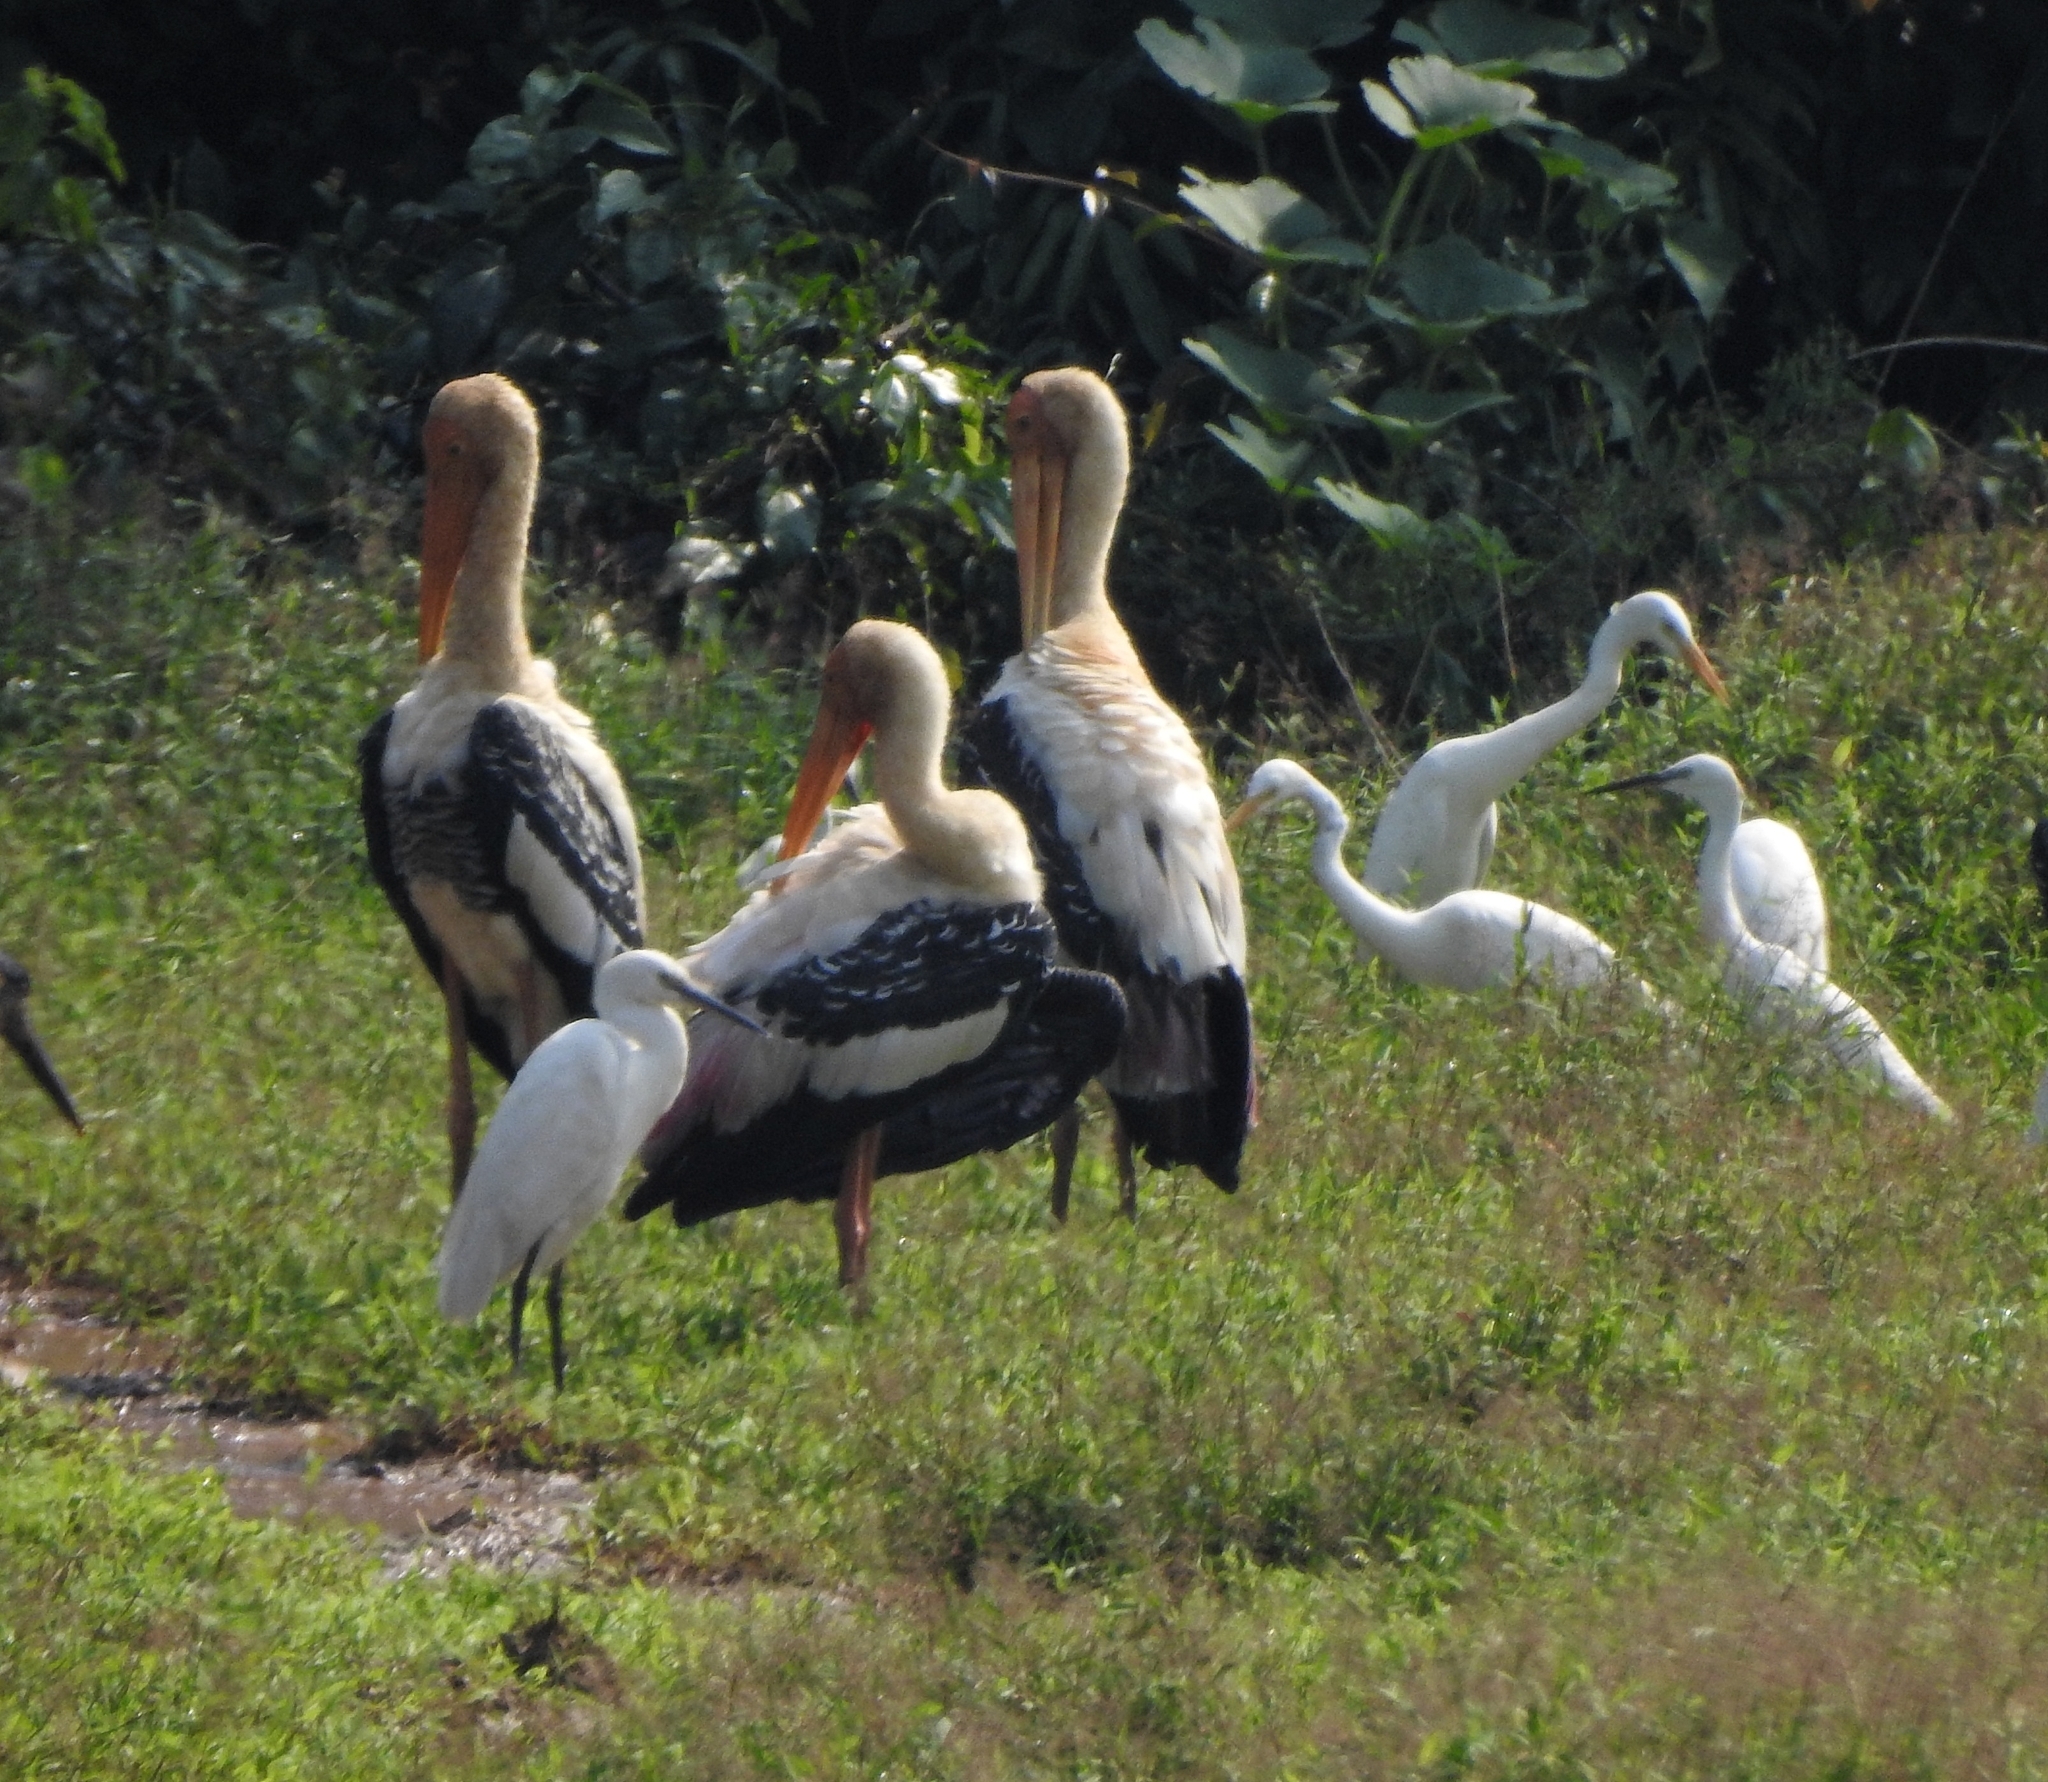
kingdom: Animalia
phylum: Chordata
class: Aves
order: Pelecaniformes
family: Ardeidae
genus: Egretta
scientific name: Egretta garzetta
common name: Little egret
